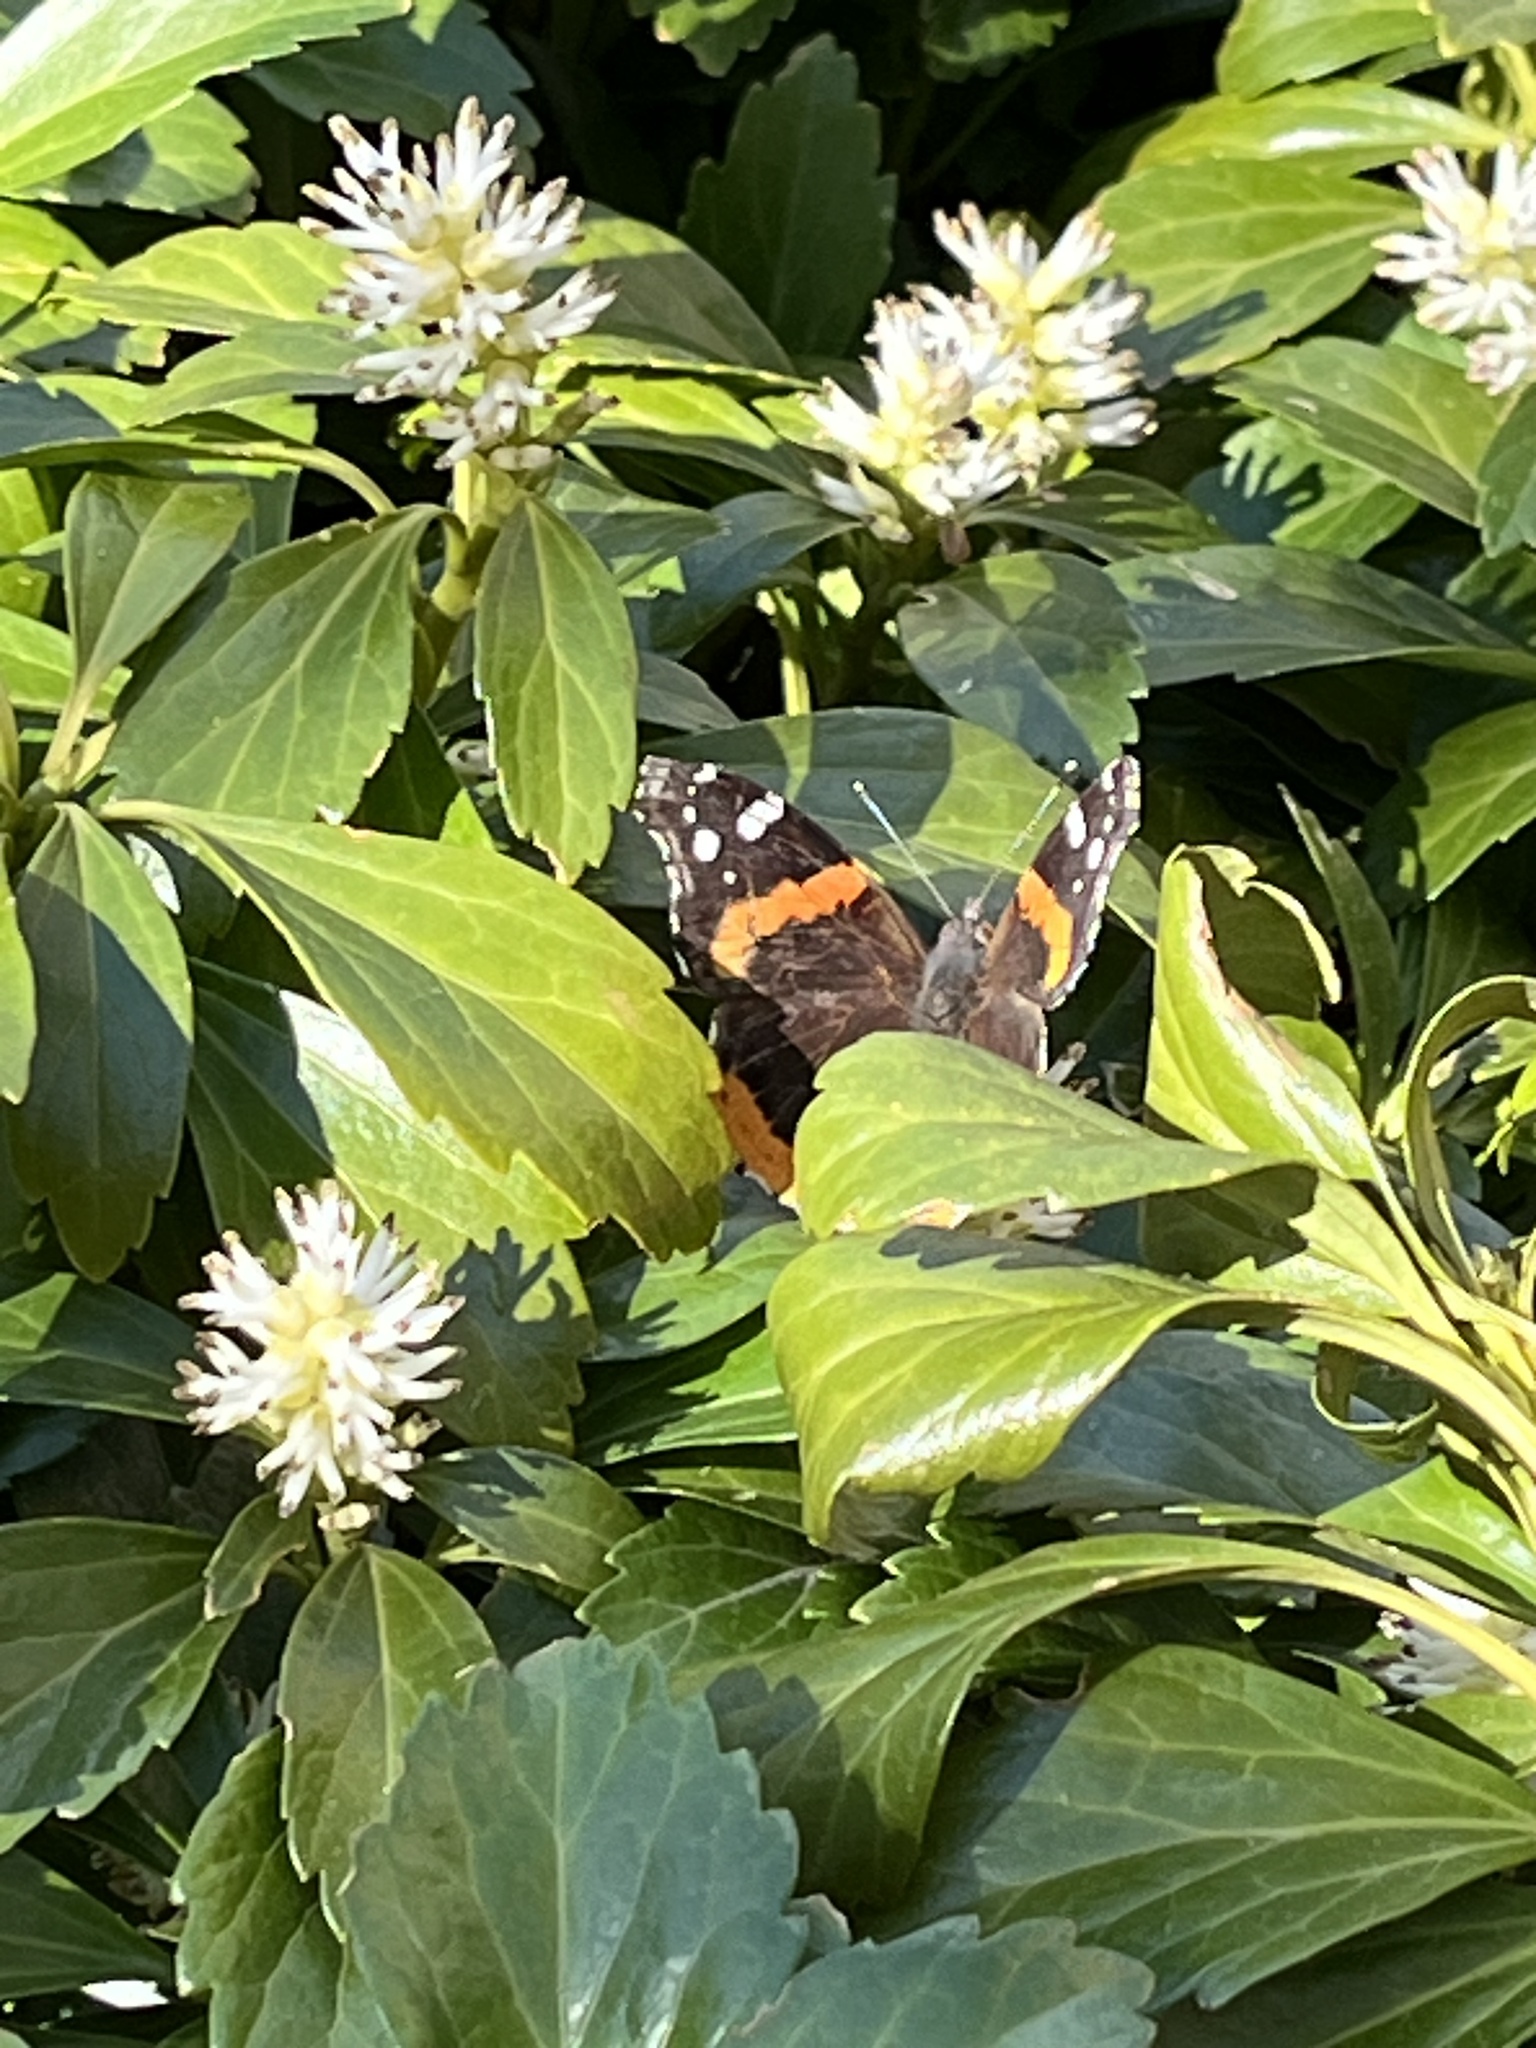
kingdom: Animalia
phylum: Arthropoda
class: Insecta
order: Lepidoptera
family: Nymphalidae
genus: Vanessa
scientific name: Vanessa atalanta
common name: Red admiral
